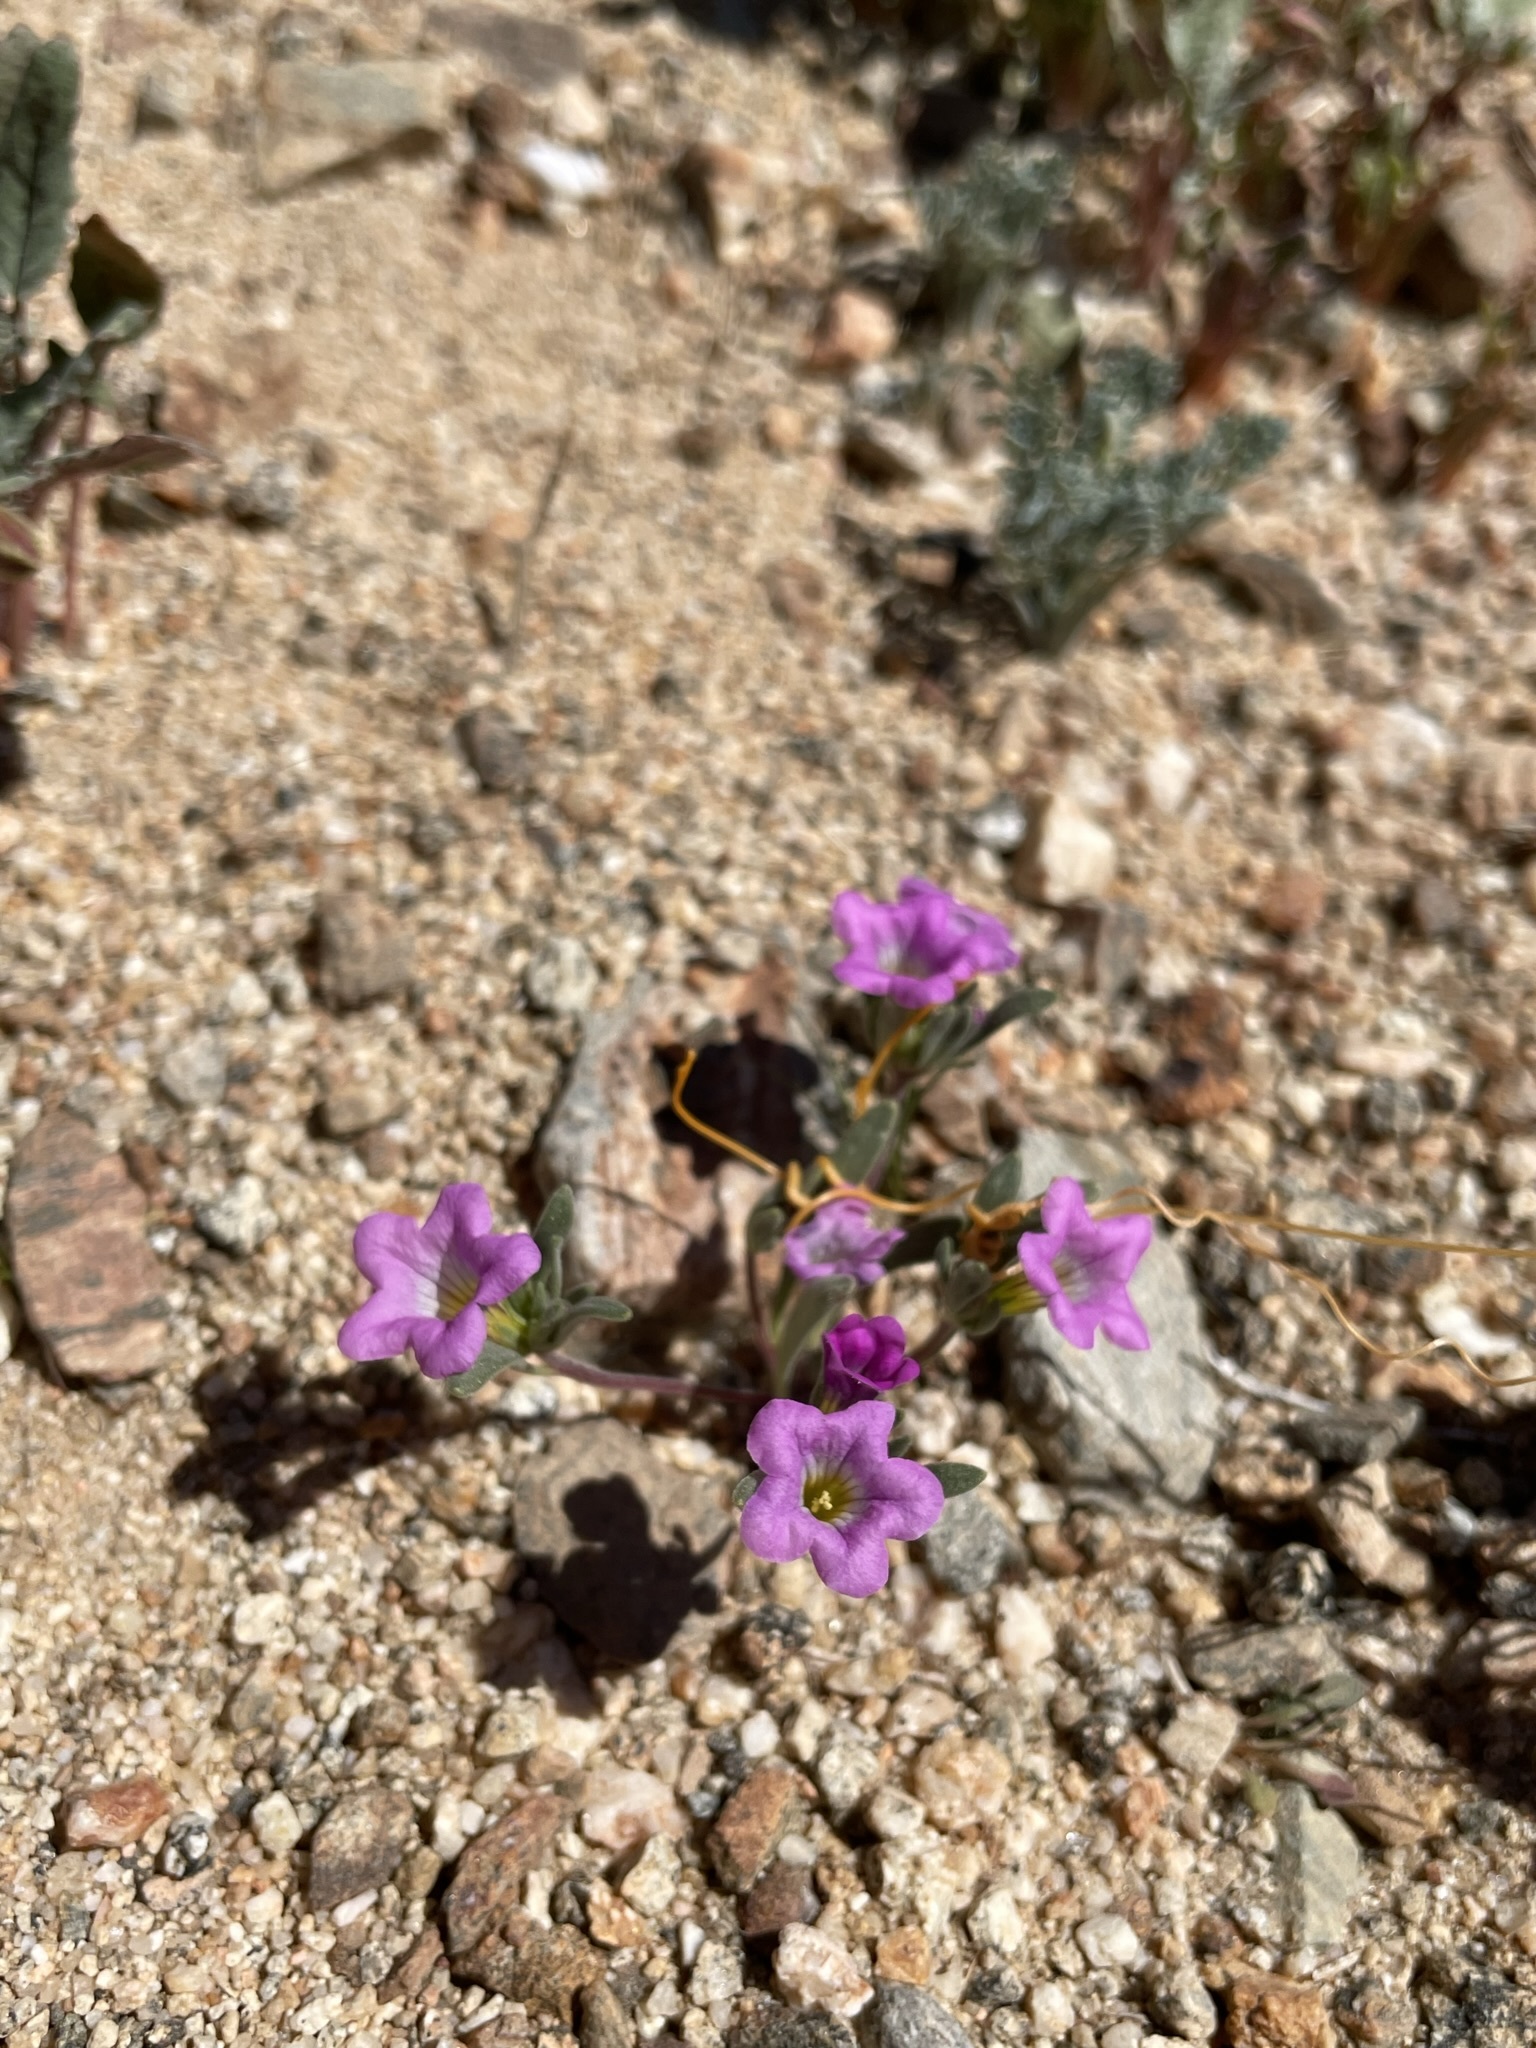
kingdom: Plantae
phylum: Tracheophyta
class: Magnoliopsida
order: Boraginales
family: Namaceae
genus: Nama
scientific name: Nama demissa
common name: Leafy nama
